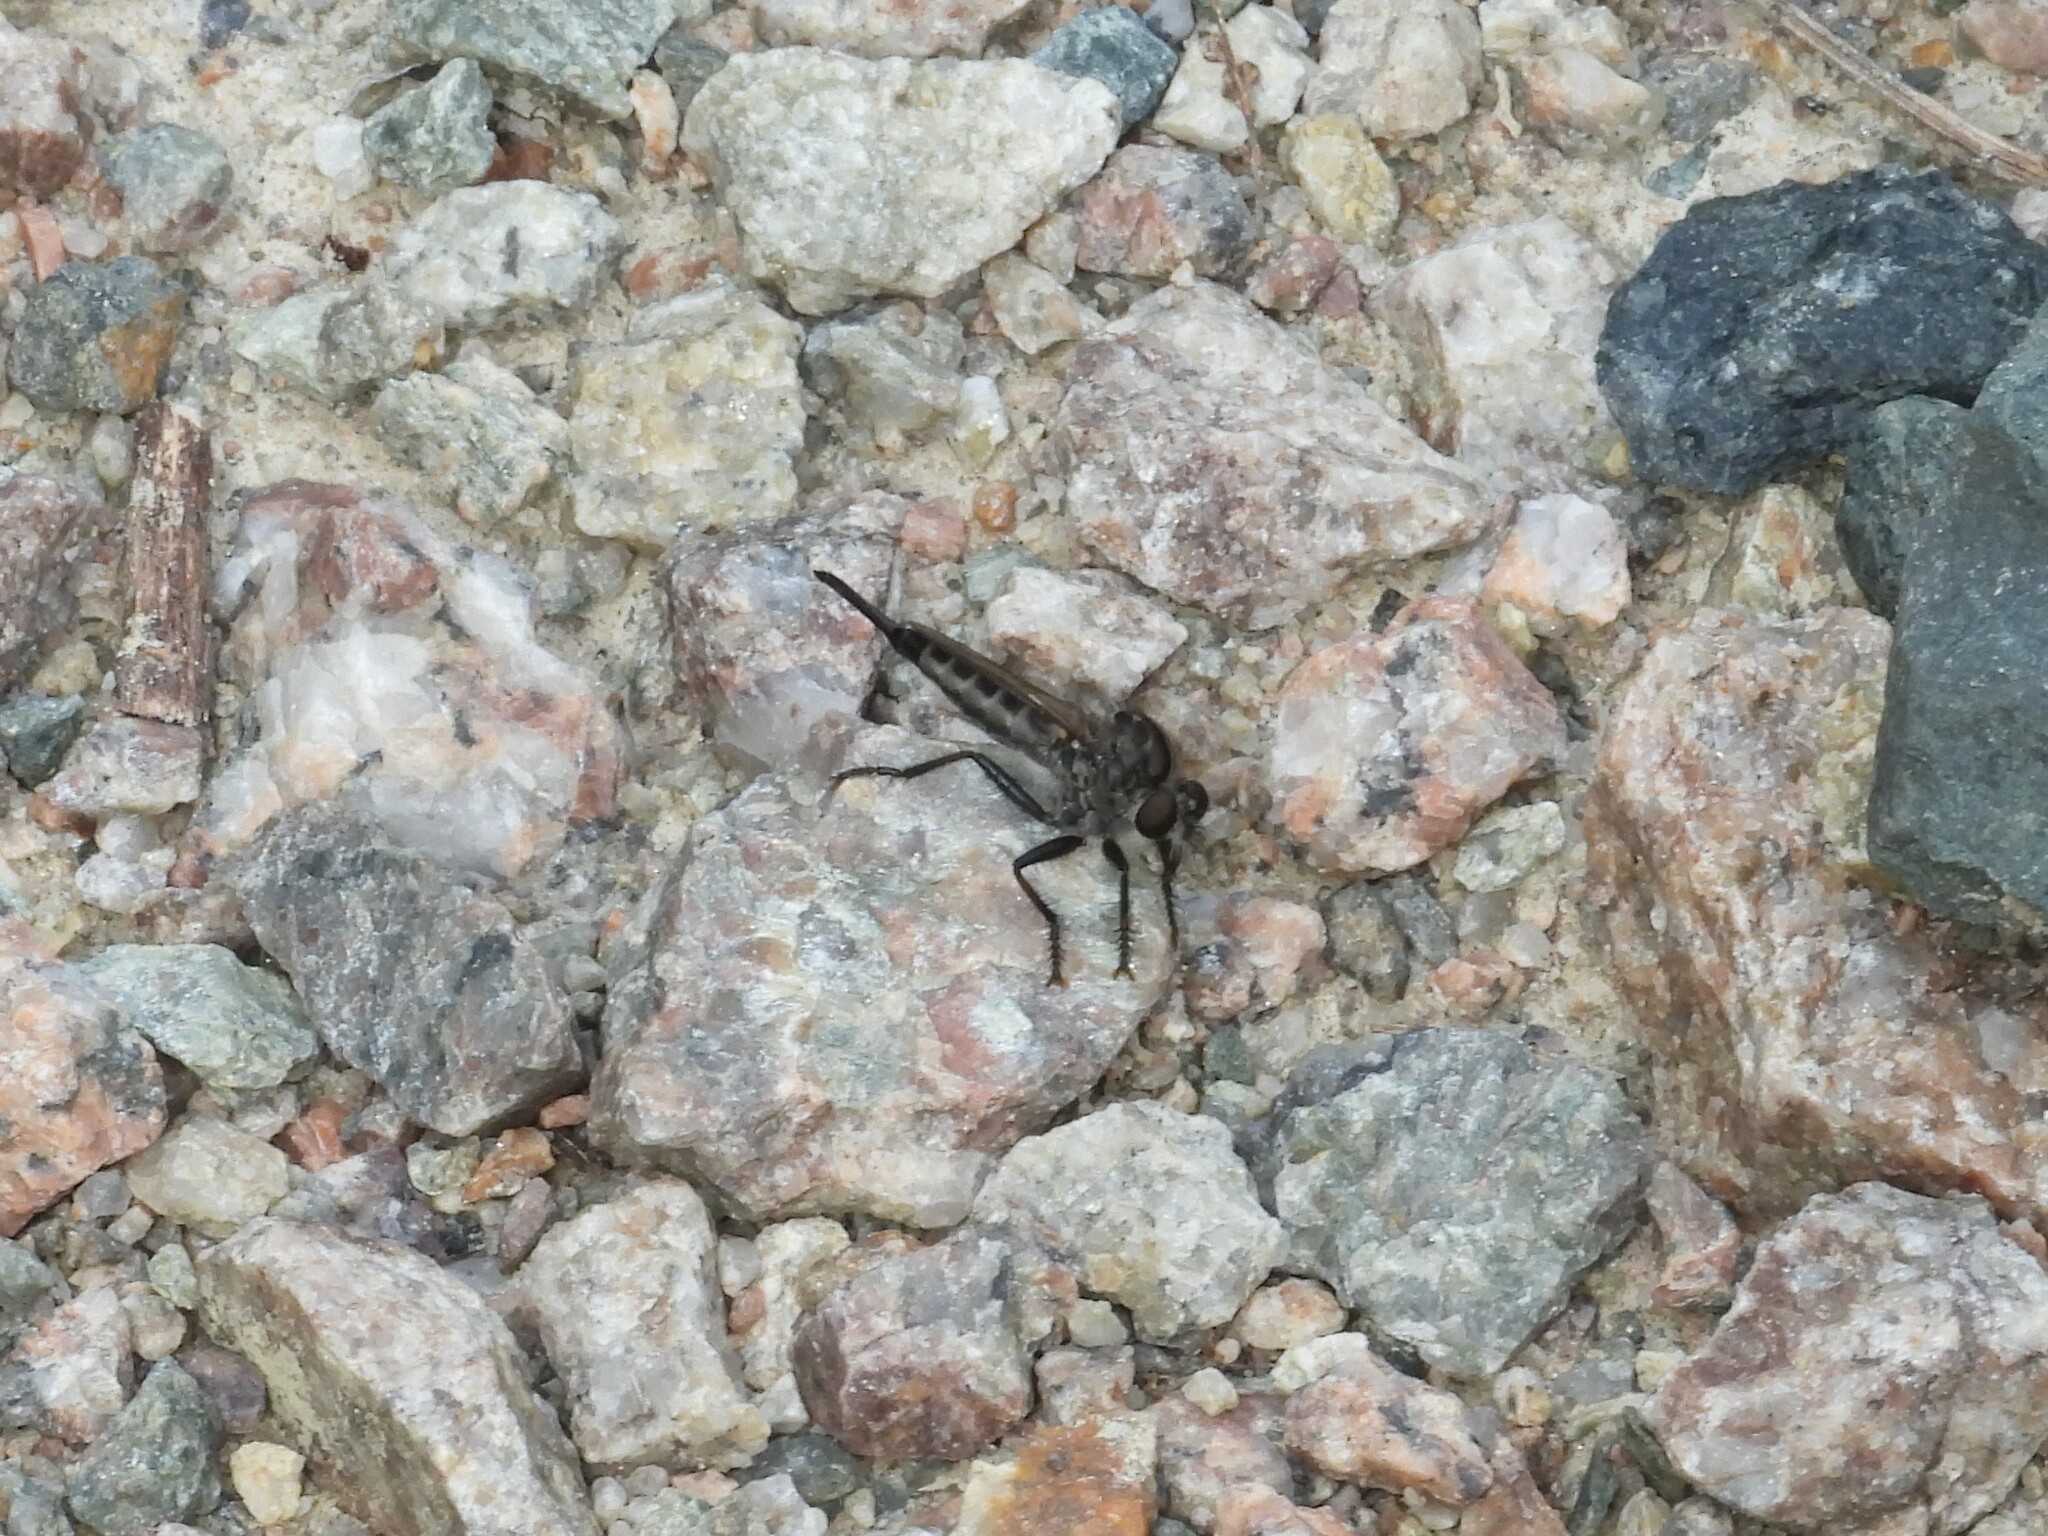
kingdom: Animalia
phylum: Arthropoda
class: Insecta
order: Diptera
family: Asilidae
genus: Efferia
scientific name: Efferia aestuans
